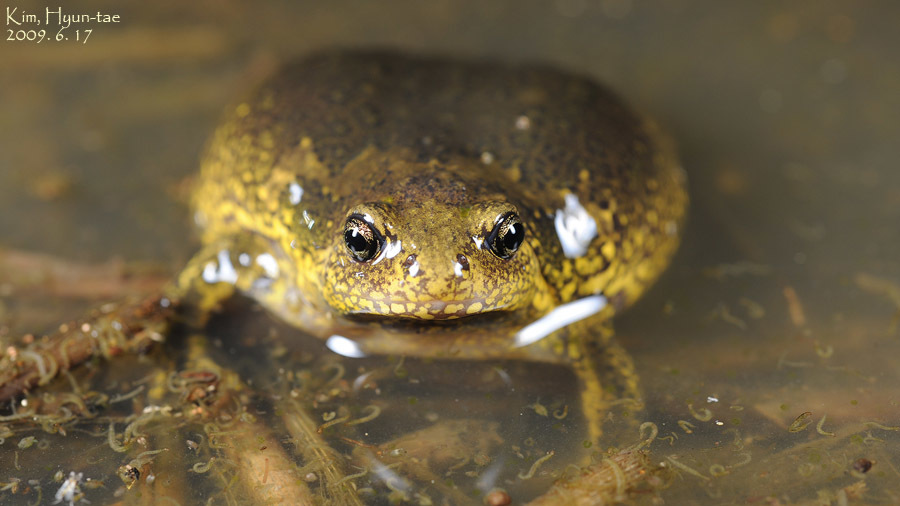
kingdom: Animalia
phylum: Chordata
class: Amphibia
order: Anura
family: Microhylidae
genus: Kaloula
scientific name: Kaloula borealis
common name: Boreal digging frog
